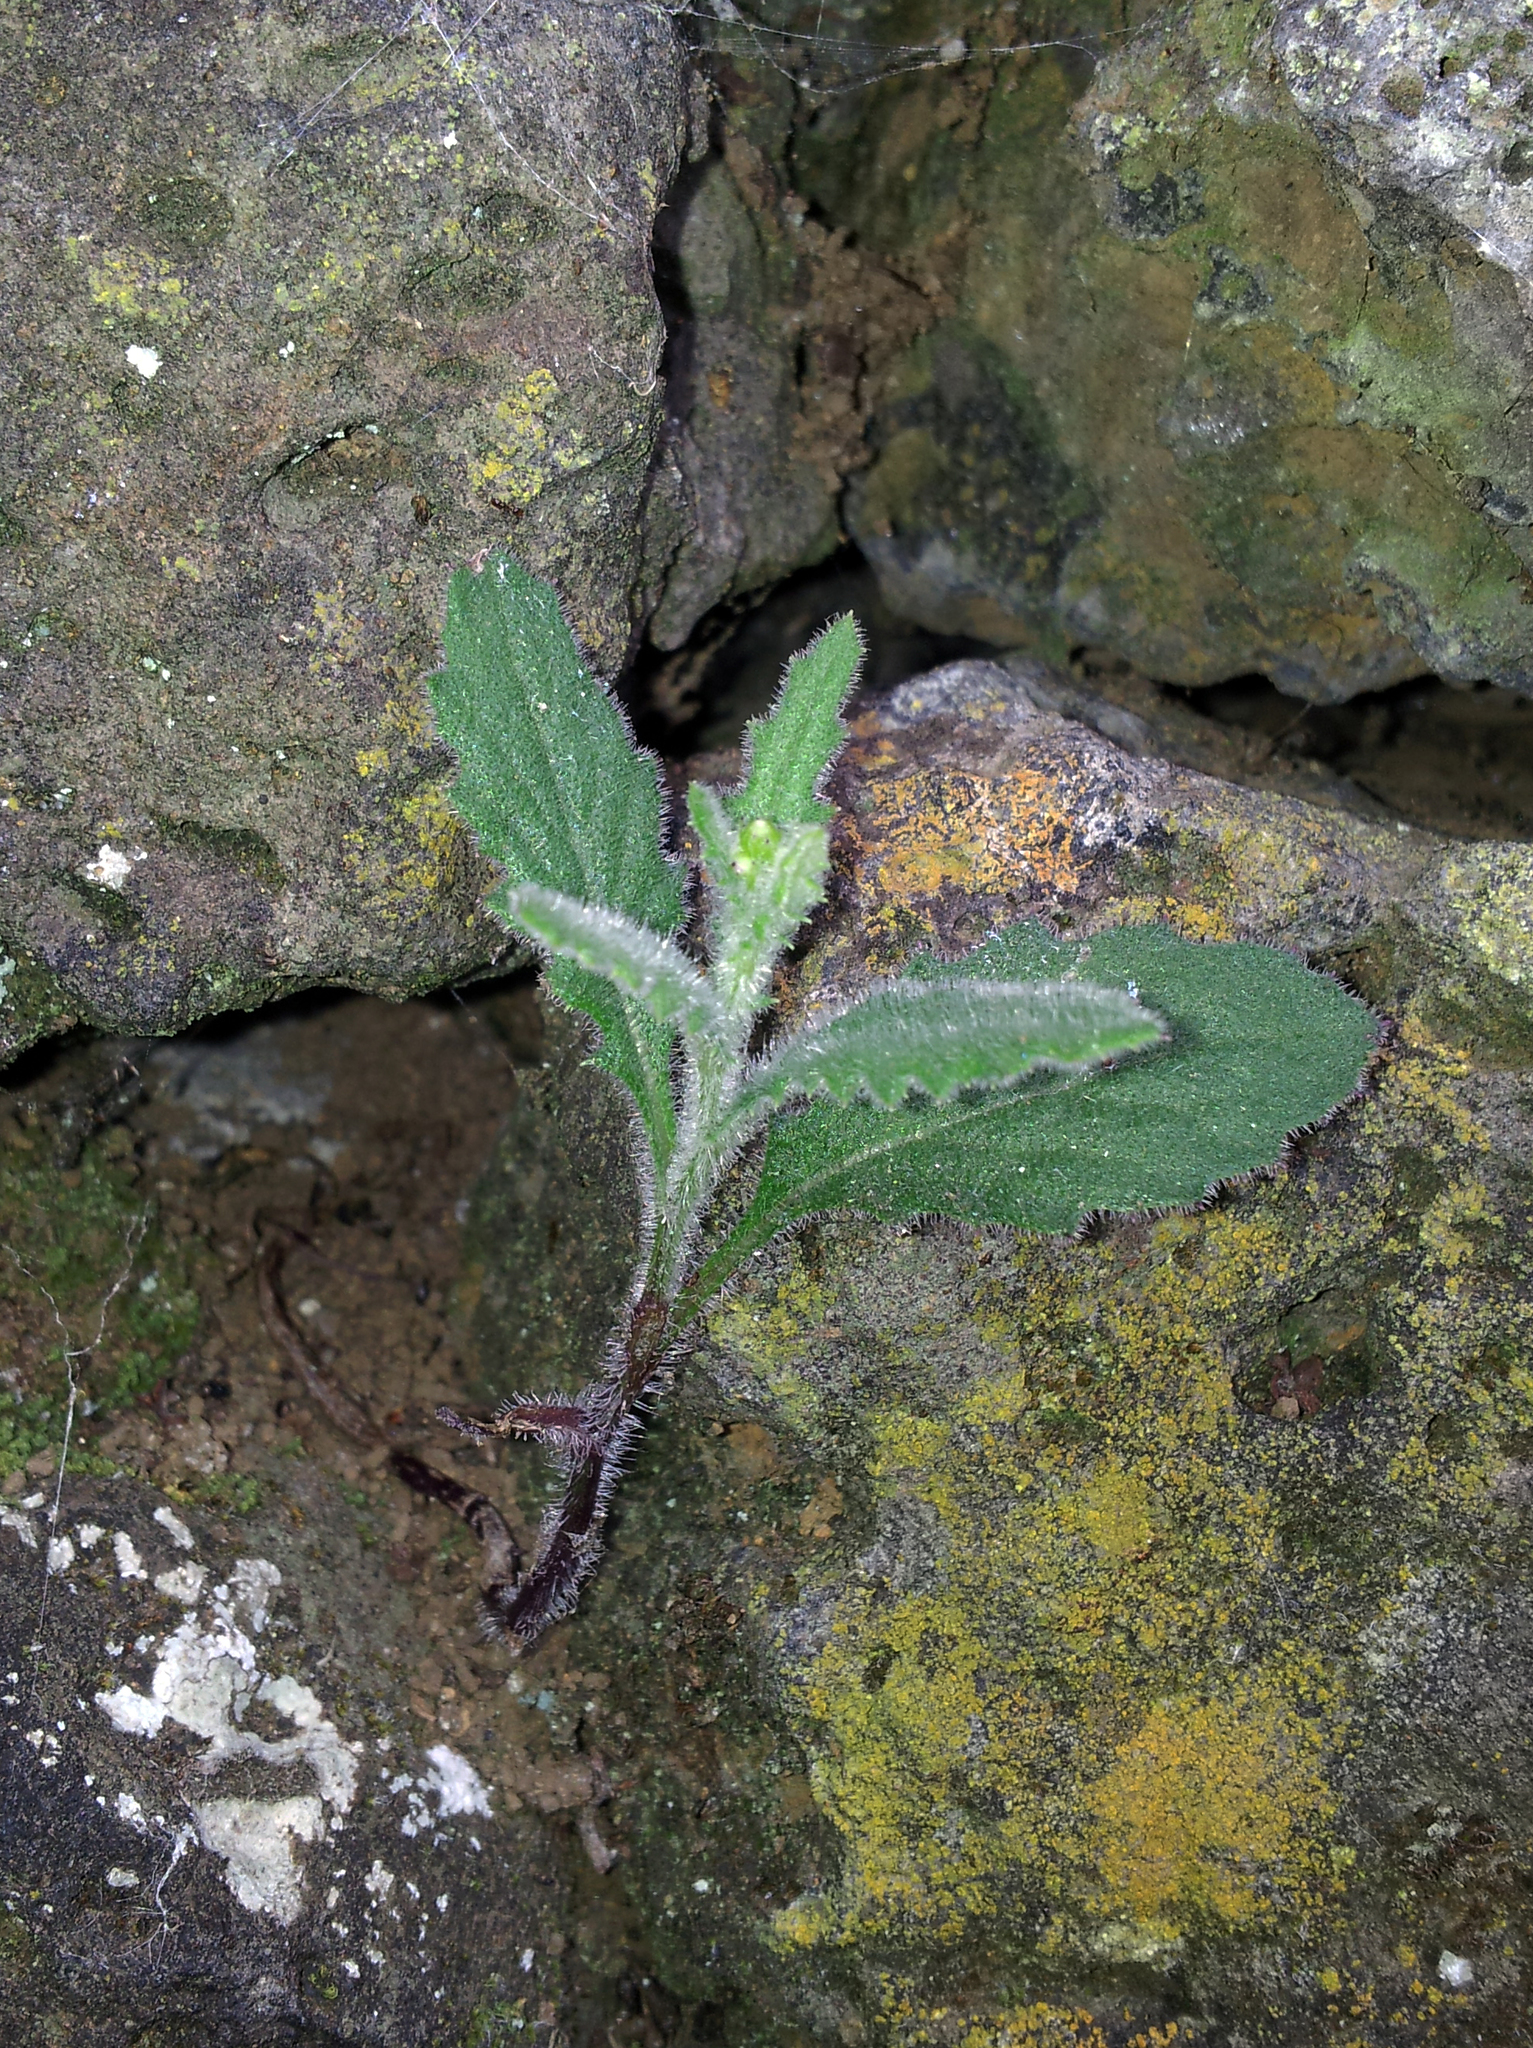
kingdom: Plantae
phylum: Tracheophyta
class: Magnoliopsida
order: Asterales
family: Asteraceae
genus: Senecio
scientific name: Senecio scaberulus
